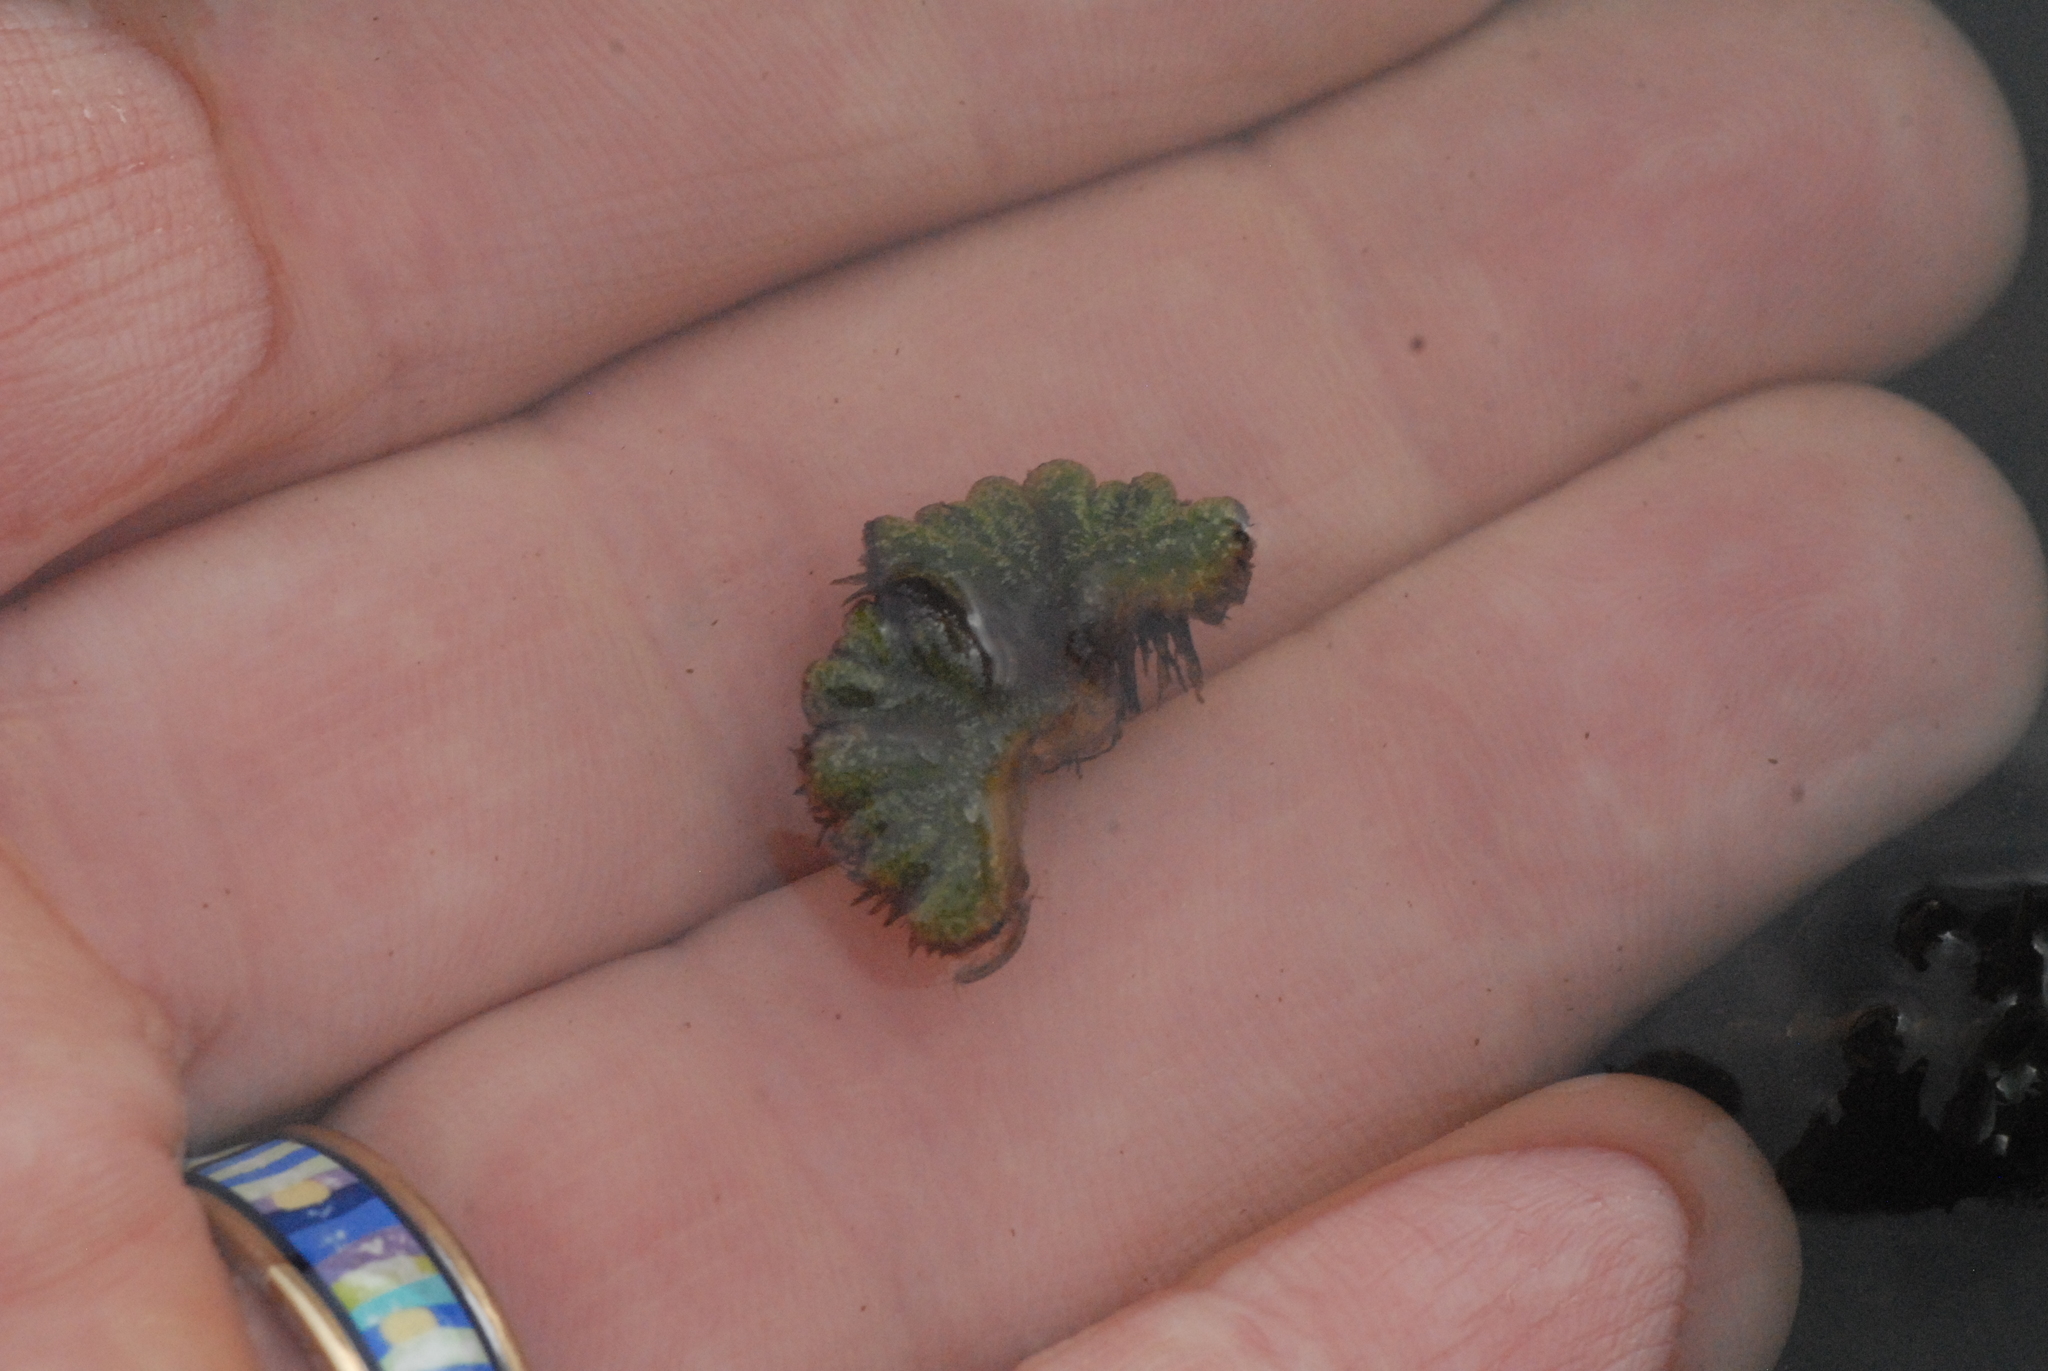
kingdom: Plantae
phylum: Marchantiophyta
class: Marchantiopsida
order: Marchantiales
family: Ricciaceae
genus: Ricciocarpos
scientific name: Ricciocarpos natans
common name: Purple-fringed liverwort
